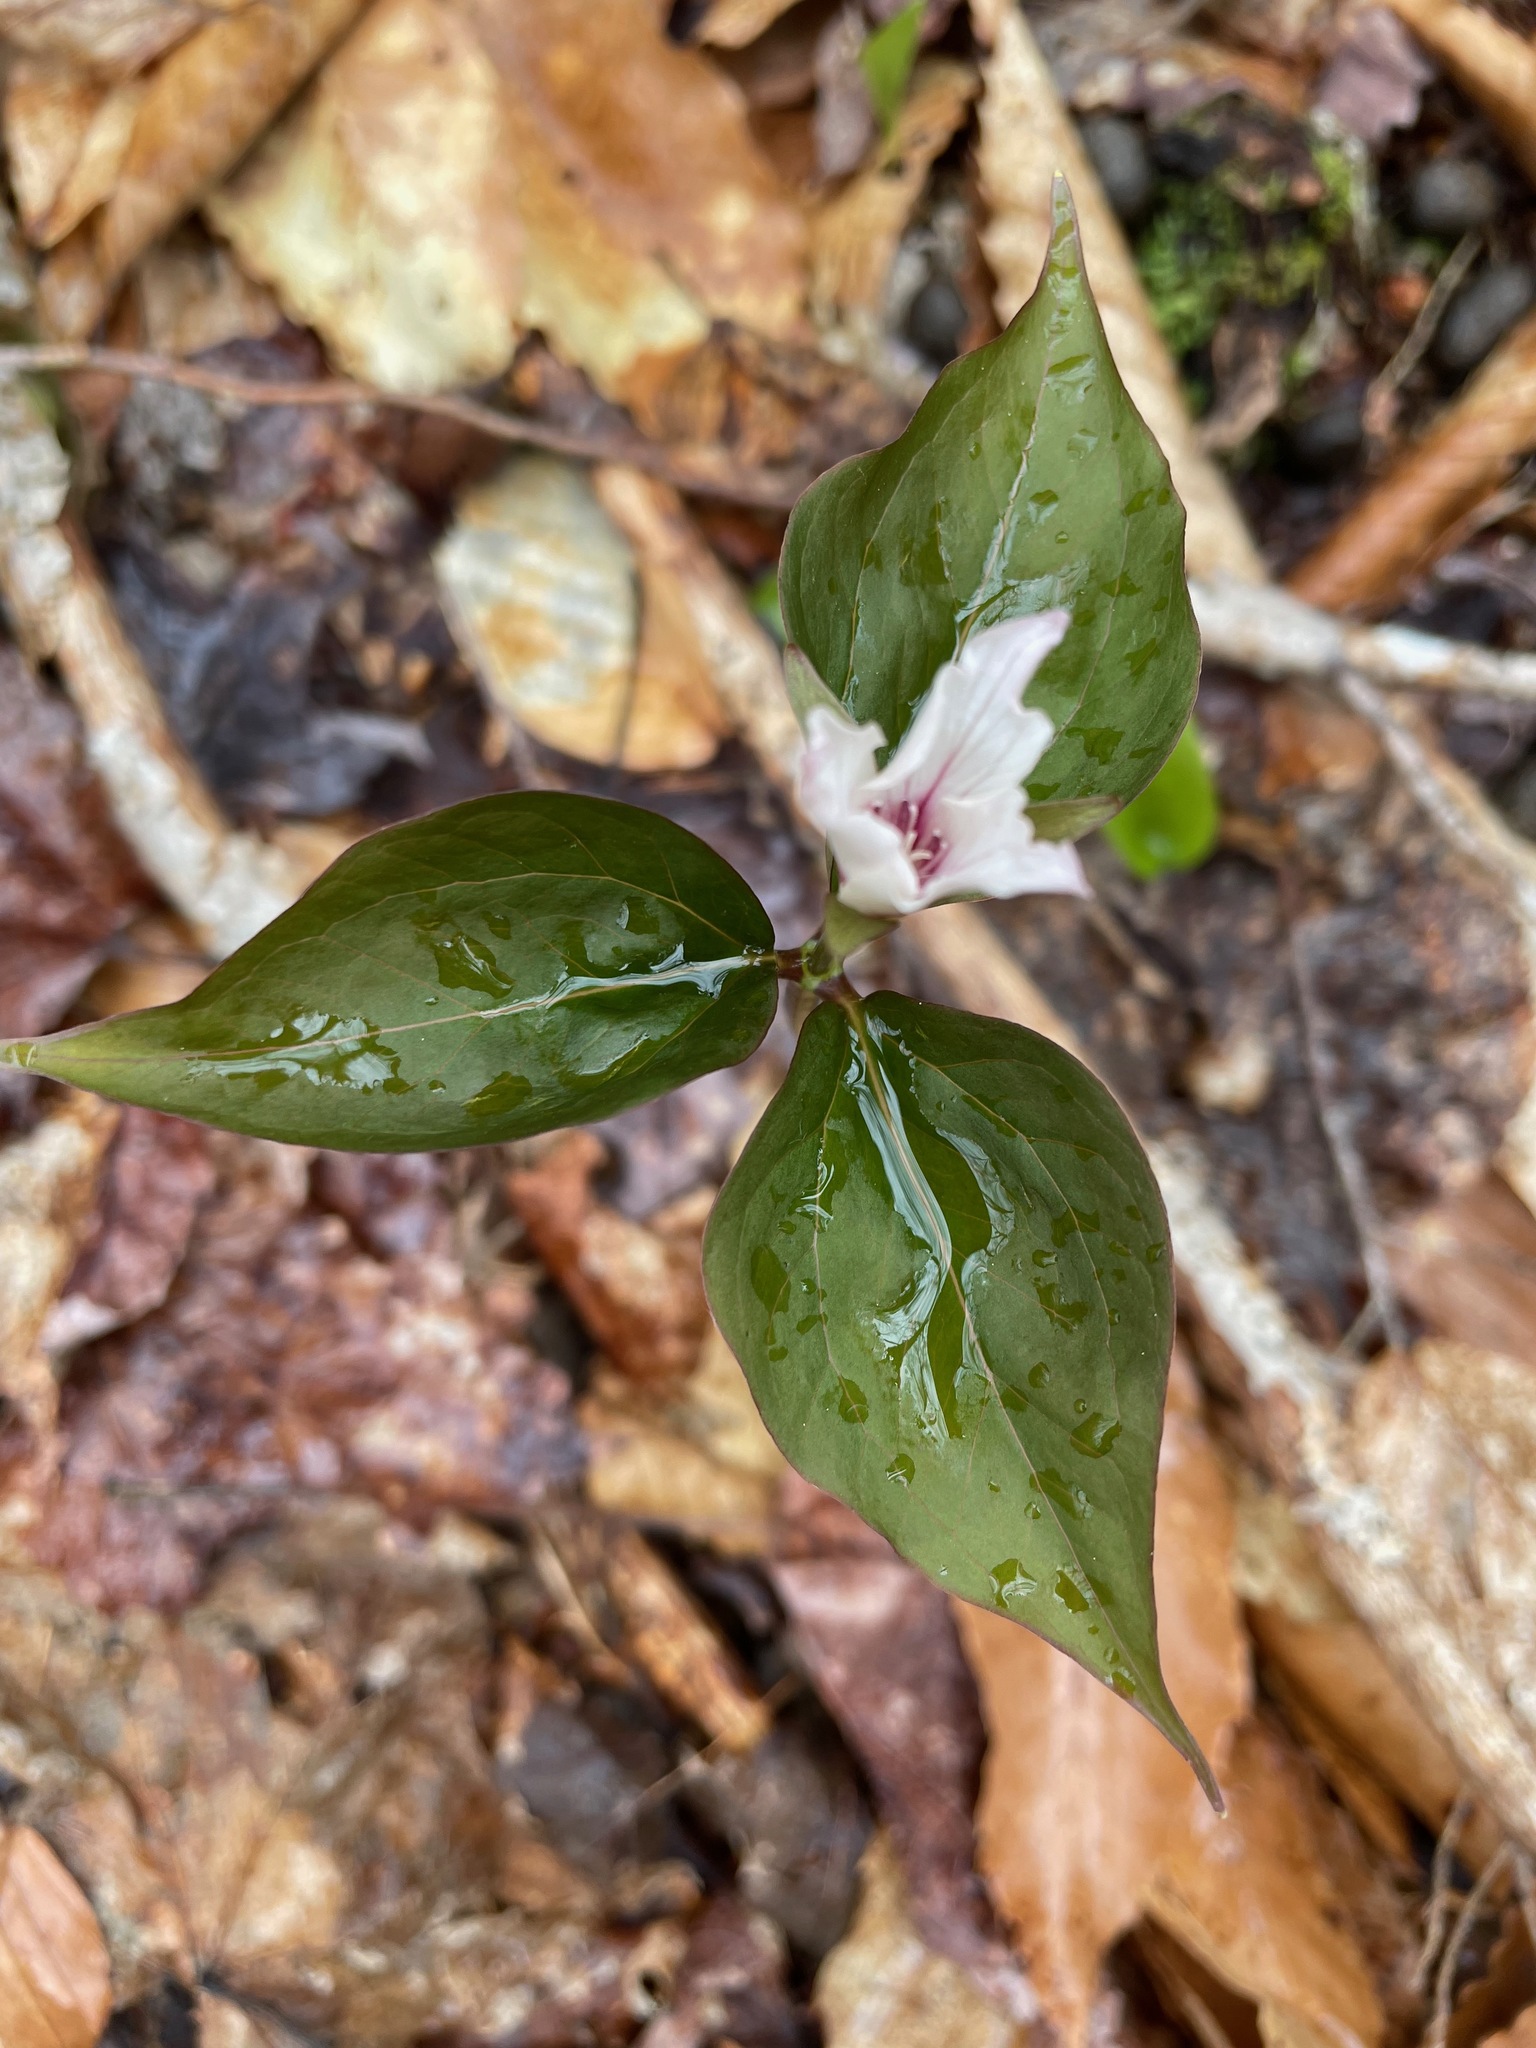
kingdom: Plantae
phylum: Tracheophyta
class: Liliopsida
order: Liliales
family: Melanthiaceae
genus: Trillium
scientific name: Trillium undulatum
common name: Paint trillium
